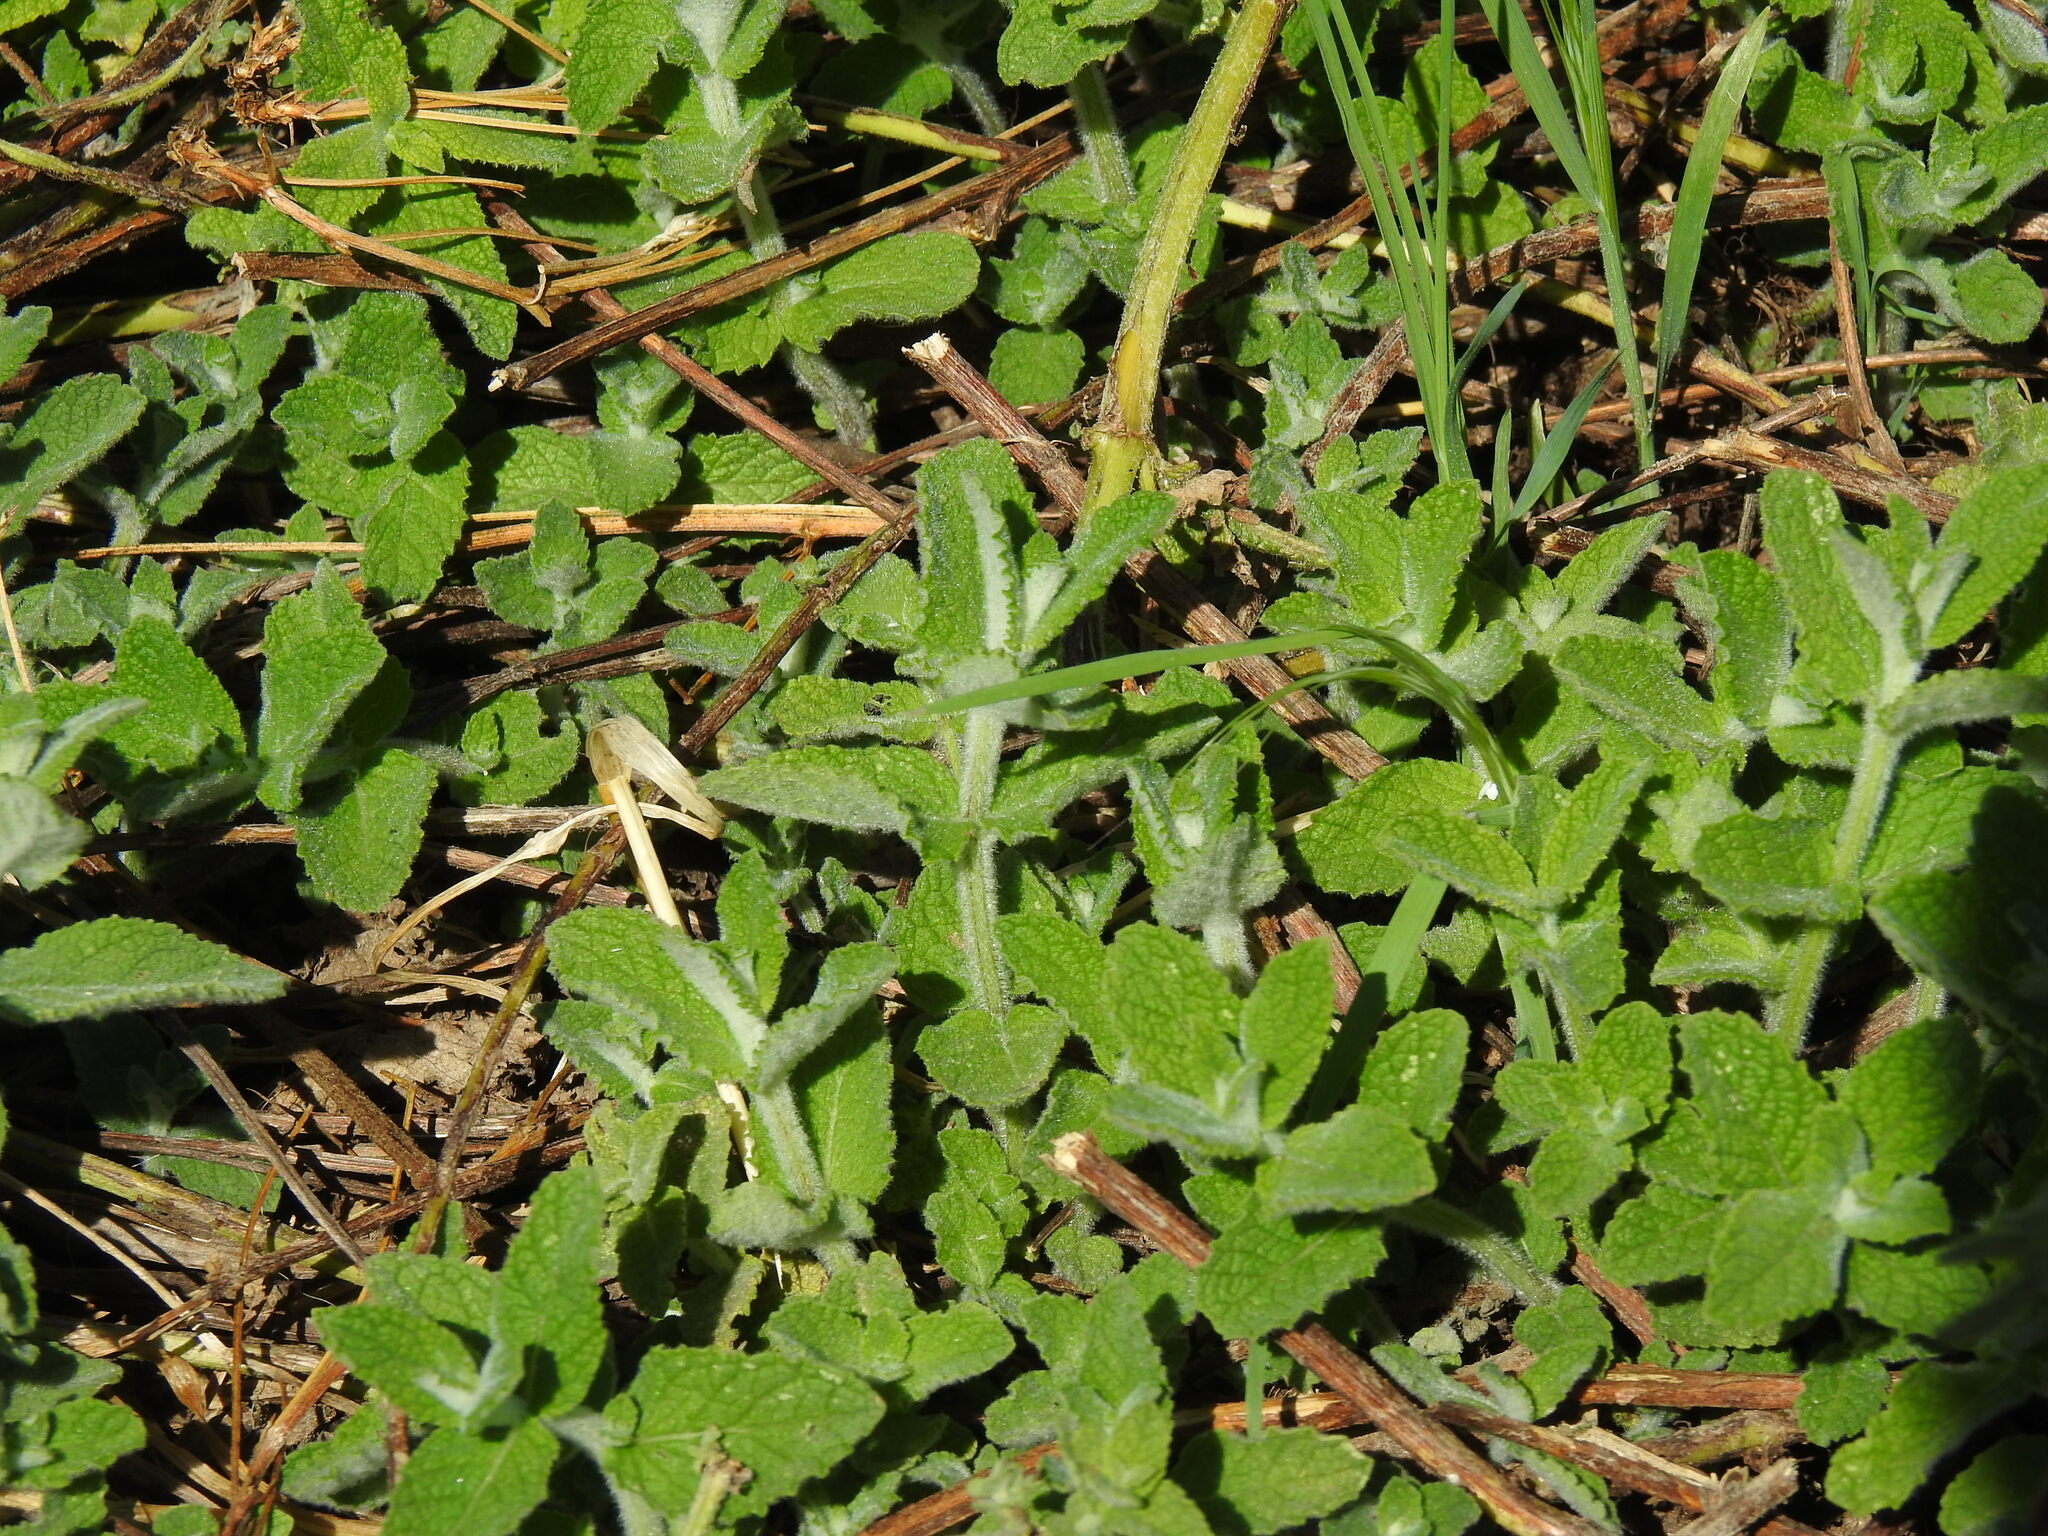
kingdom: Plantae
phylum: Tracheophyta
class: Magnoliopsida
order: Lamiales
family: Lamiaceae
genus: Mentha
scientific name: Mentha suaveolens
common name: Apple mint
